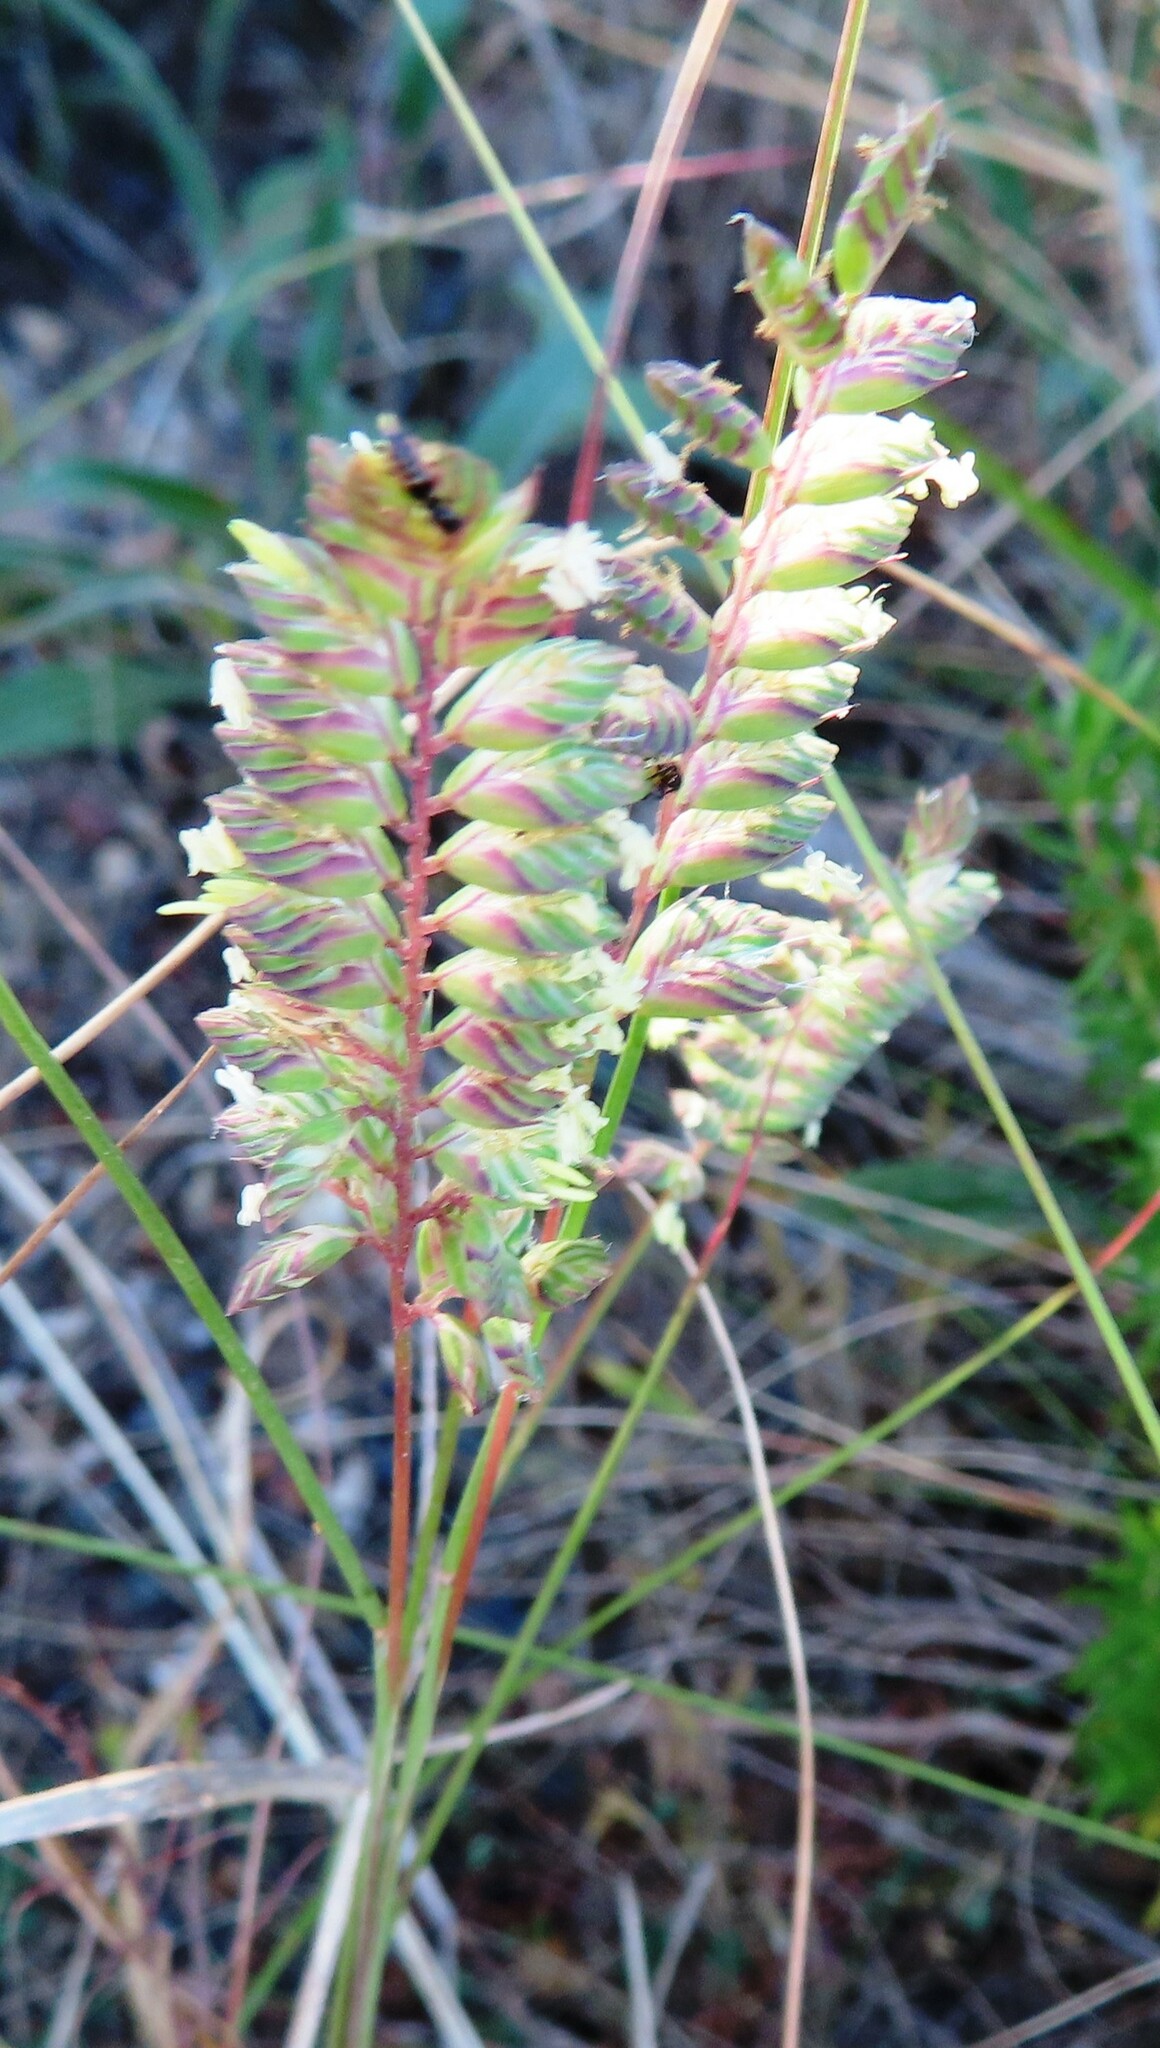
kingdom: Plantae
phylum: Tracheophyta
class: Liliopsida
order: Poales
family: Poaceae
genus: Tribolium
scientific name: Tribolium uniolae
